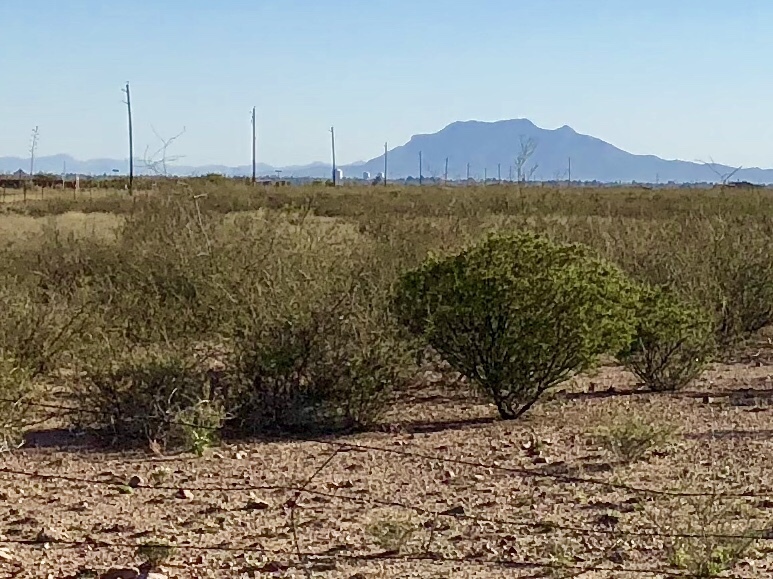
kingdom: Plantae
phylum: Tracheophyta
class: Magnoliopsida
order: Zygophyllales
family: Zygophyllaceae
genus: Larrea
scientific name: Larrea tridentata
